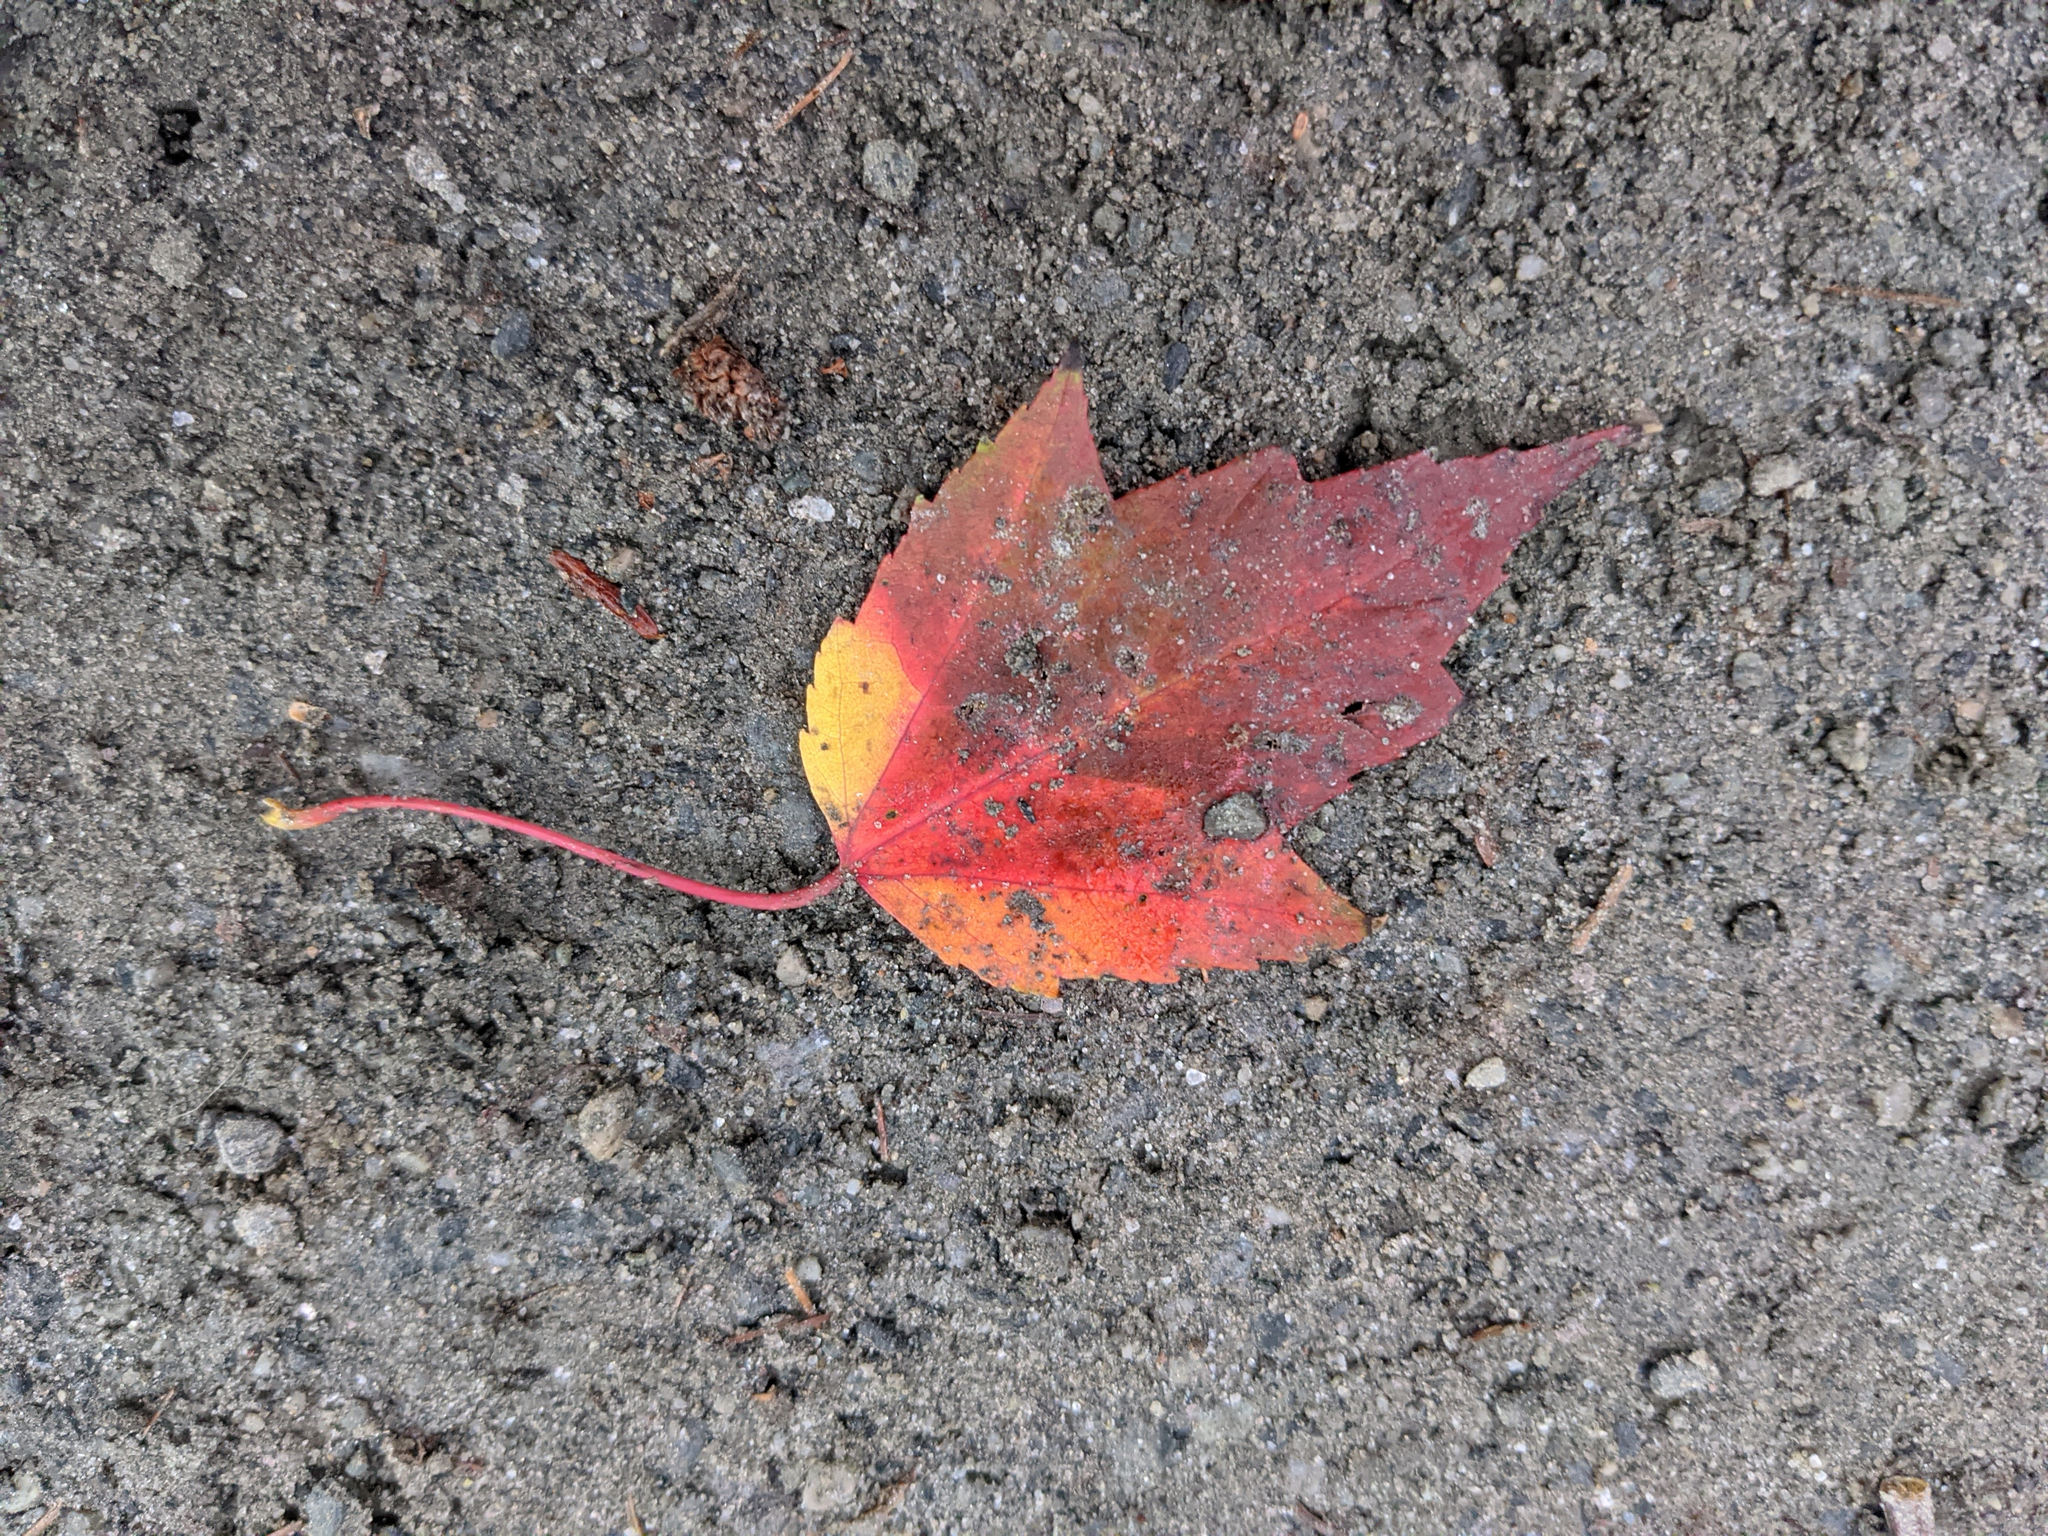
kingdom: Plantae
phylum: Tracheophyta
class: Magnoliopsida
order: Sapindales
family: Sapindaceae
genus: Acer
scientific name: Acer rubrum
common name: Red maple
